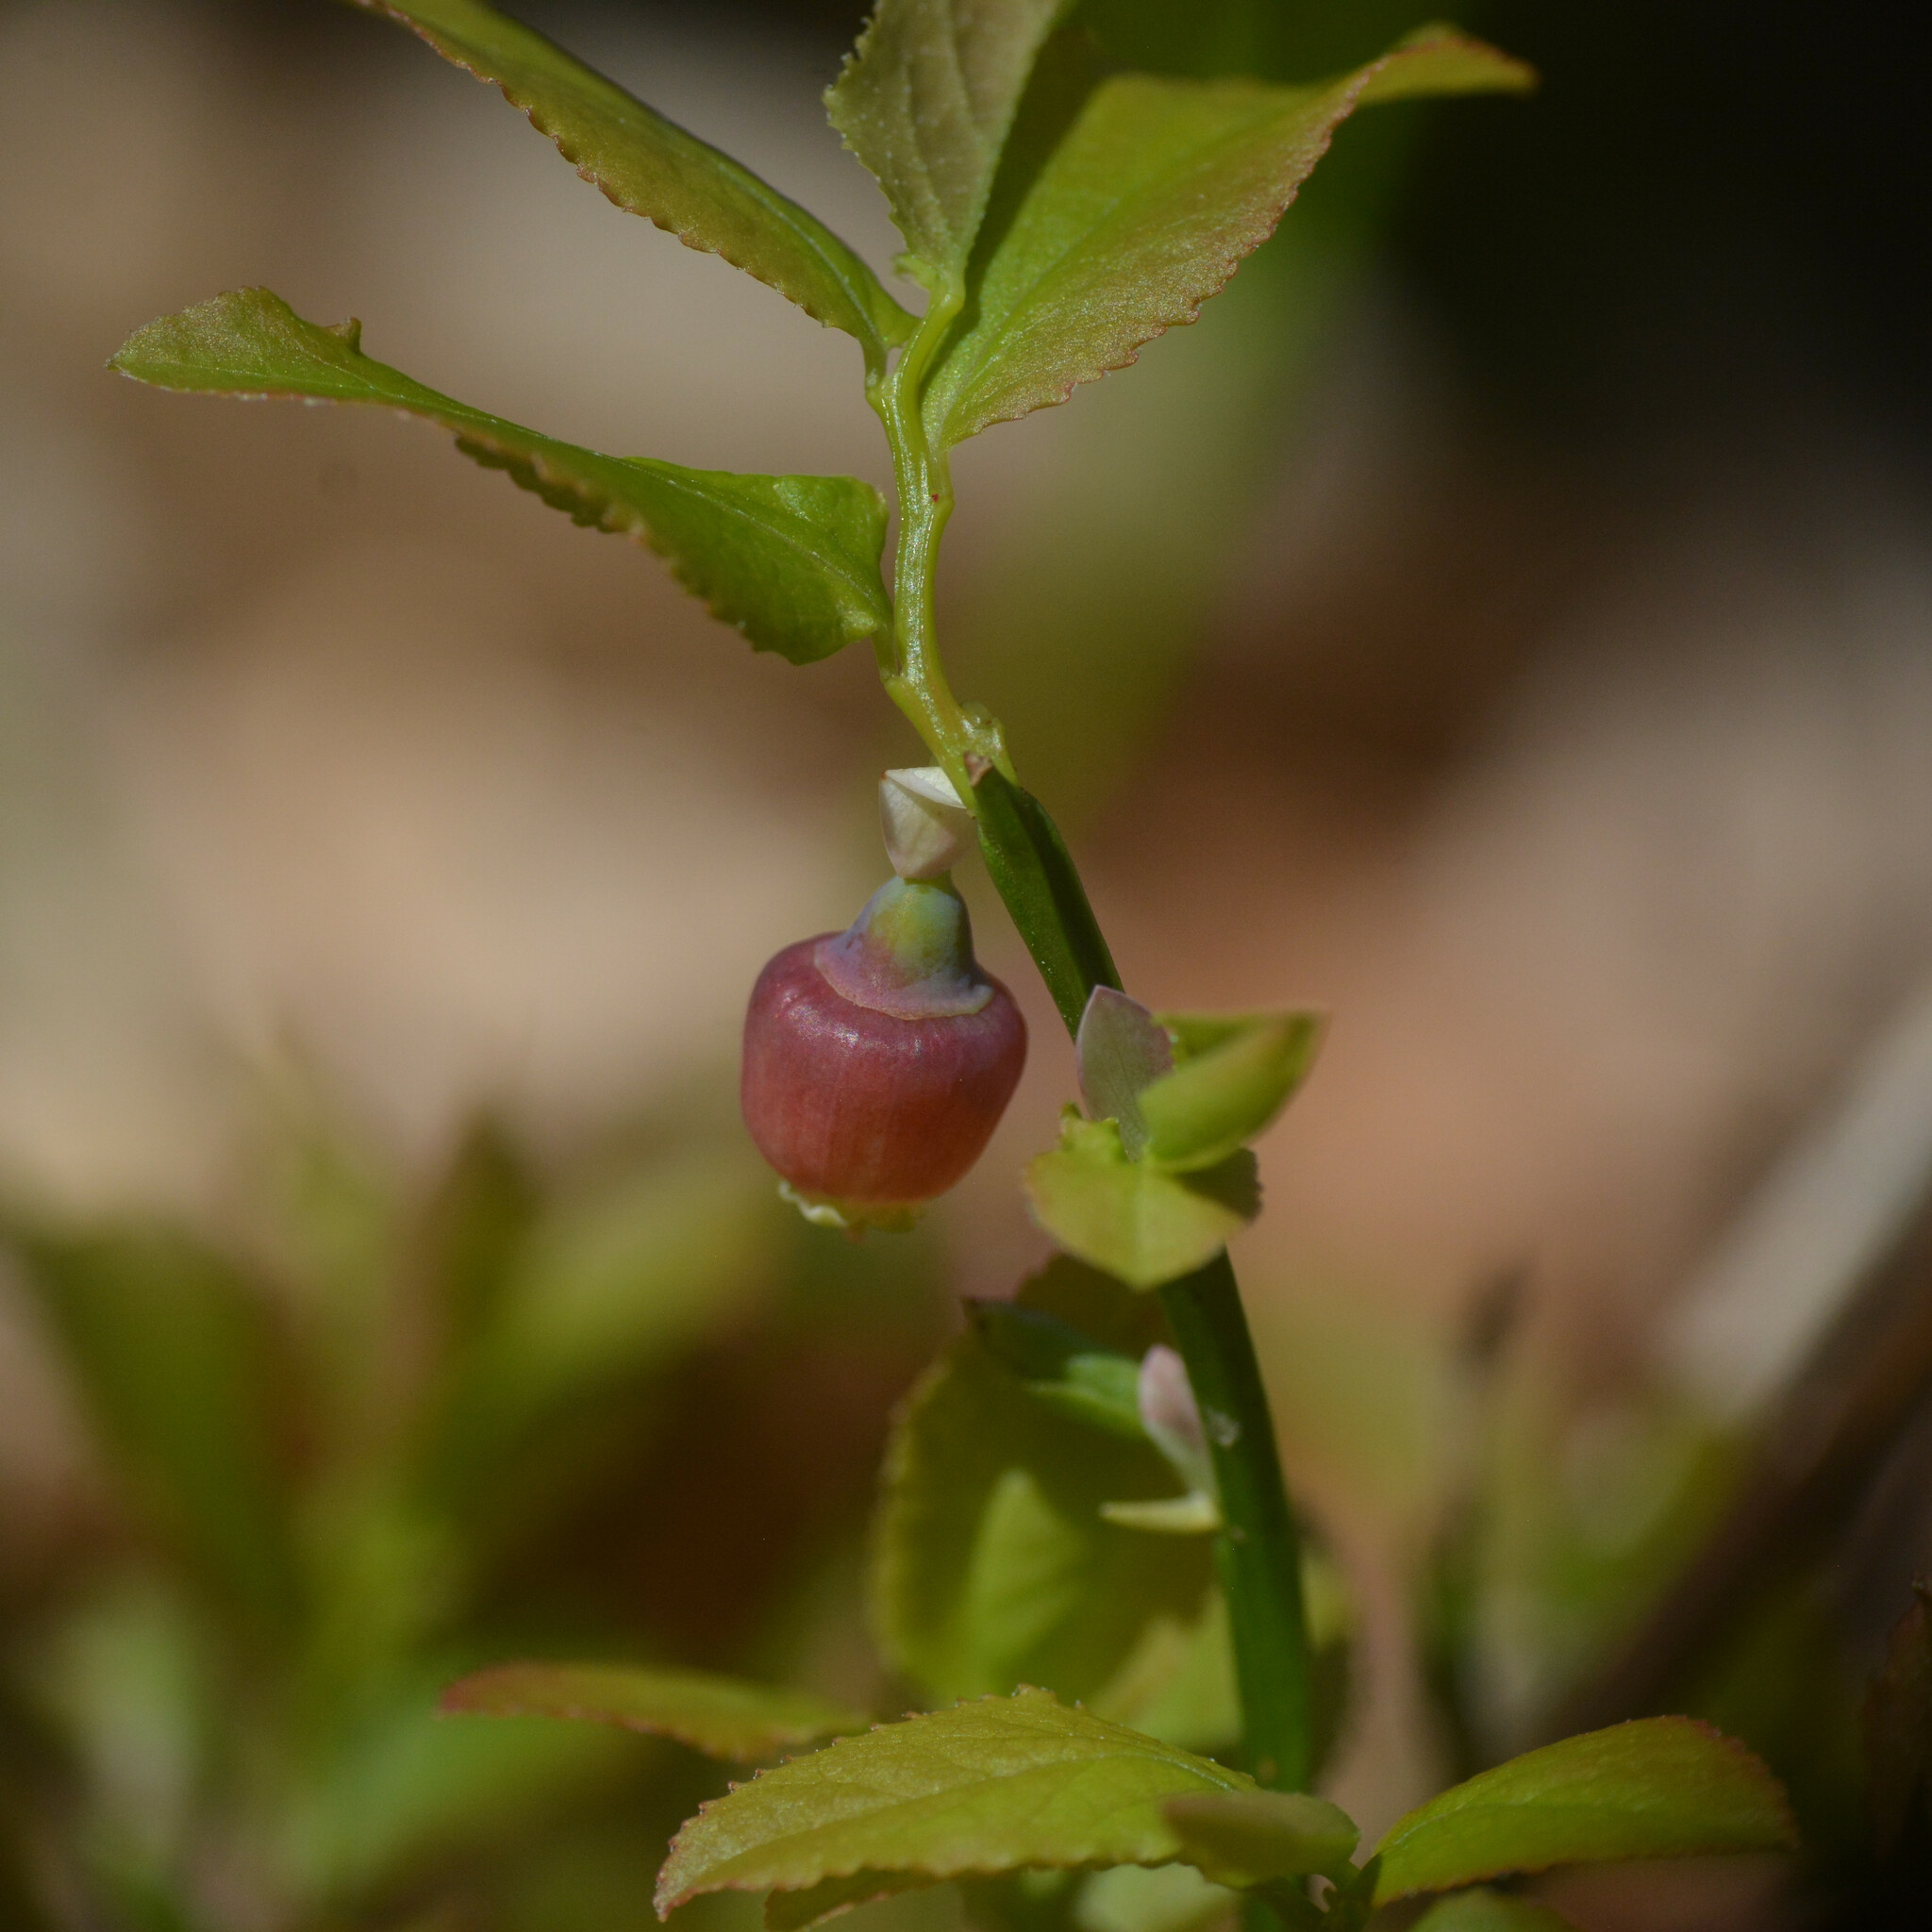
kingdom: Plantae
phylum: Tracheophyta
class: Magnoliopsida
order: Ericales
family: Ericaceae
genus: Vaccinium
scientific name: Vaccinium myrtillus
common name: Bilberry
